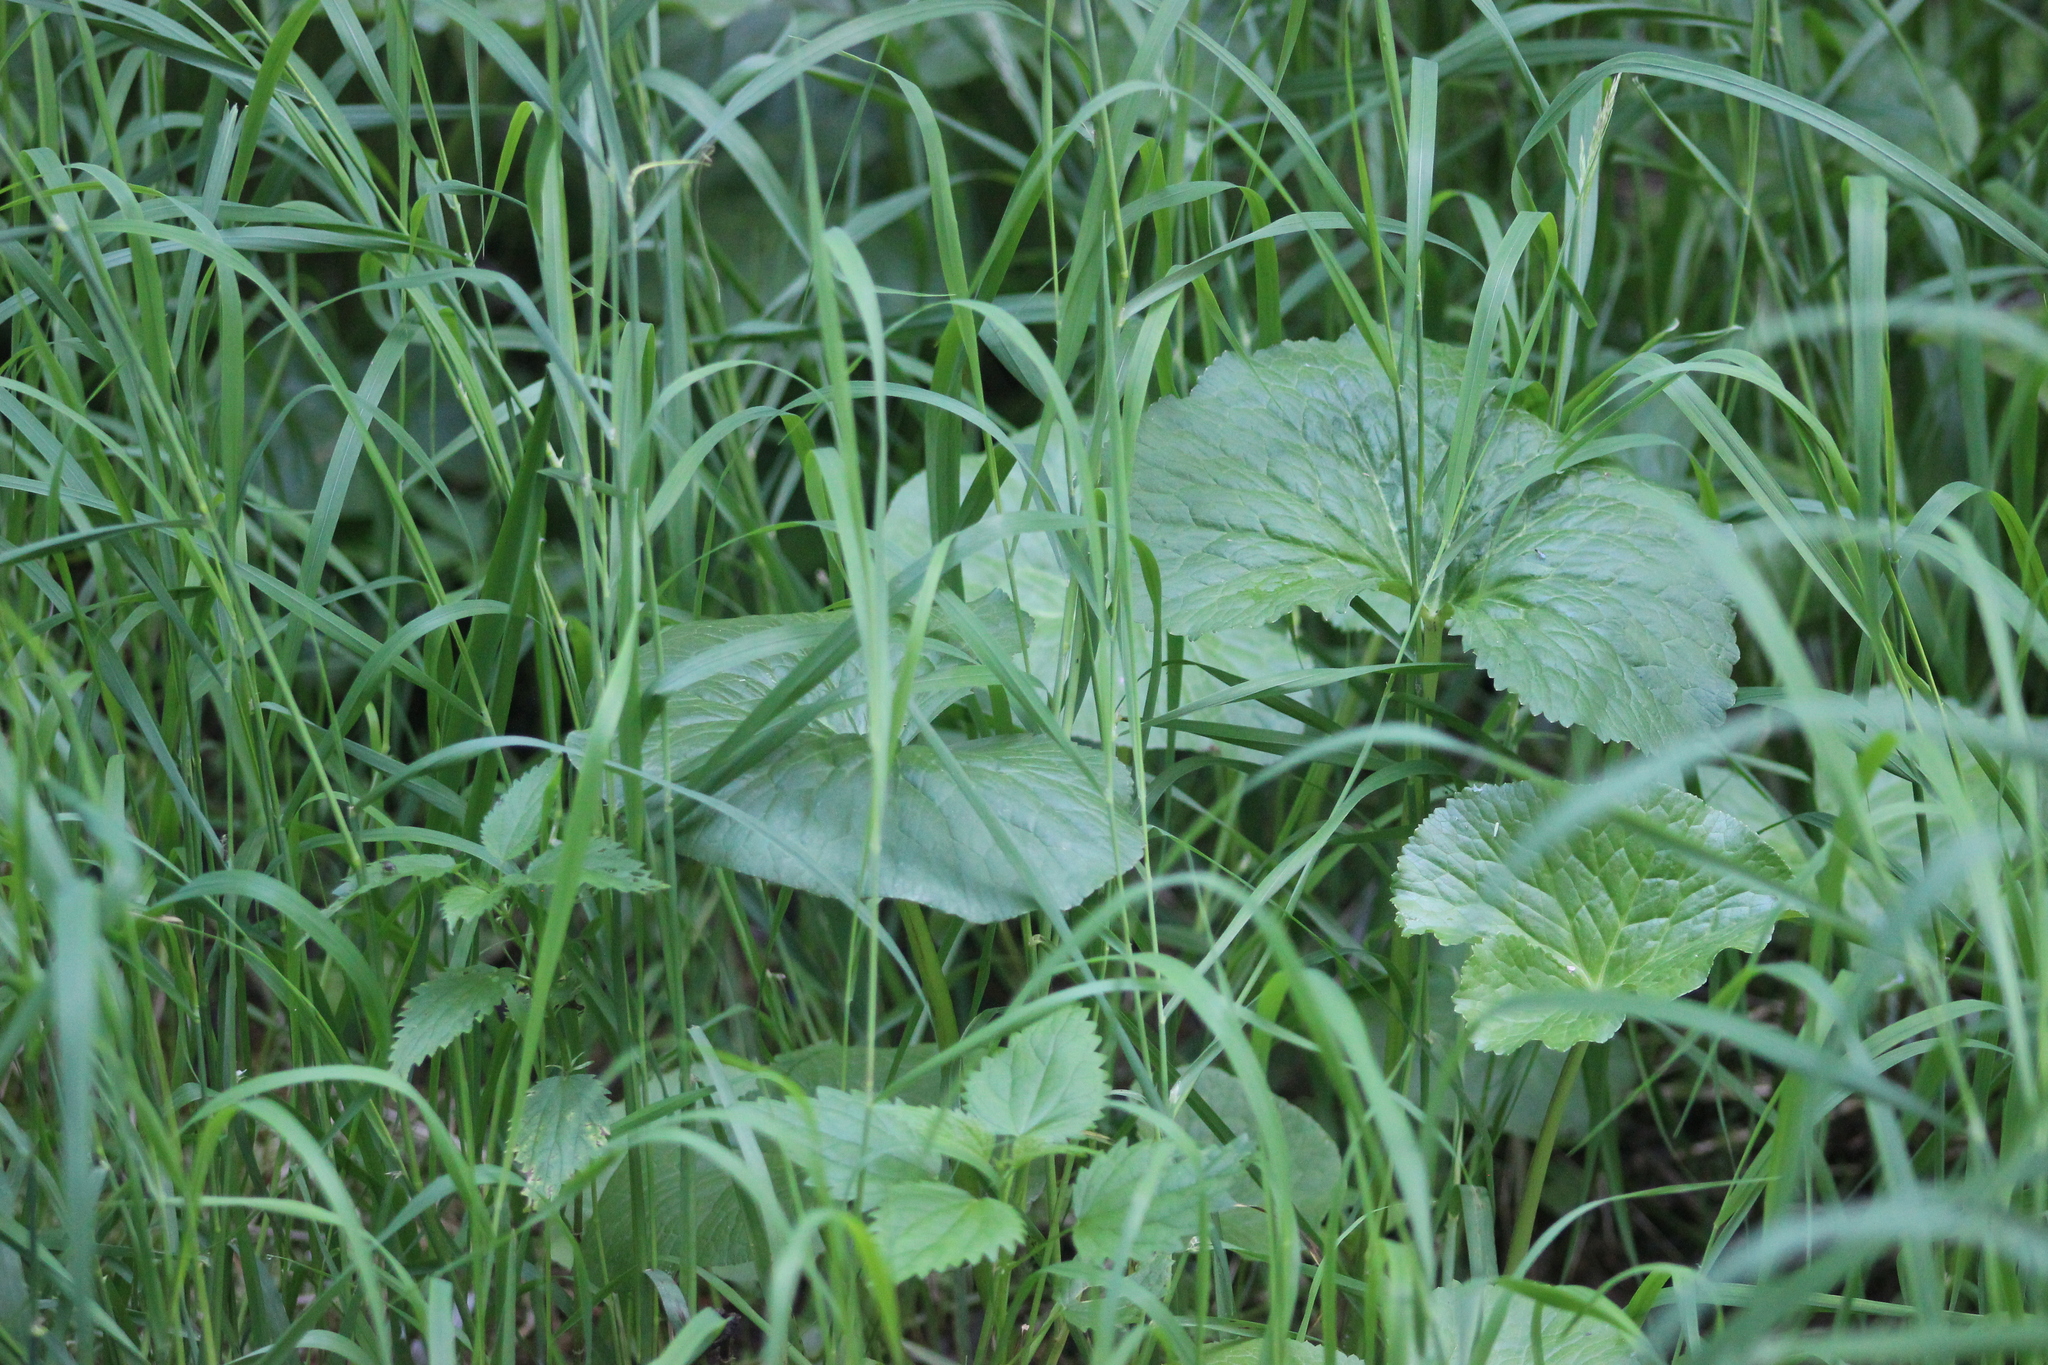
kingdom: Plantae
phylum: Tracheophyta
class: Magnoliopsida
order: Ranunculales
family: Ranunculaceae
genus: Caltha
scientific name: Caltha palustris
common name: Marsh marigold
